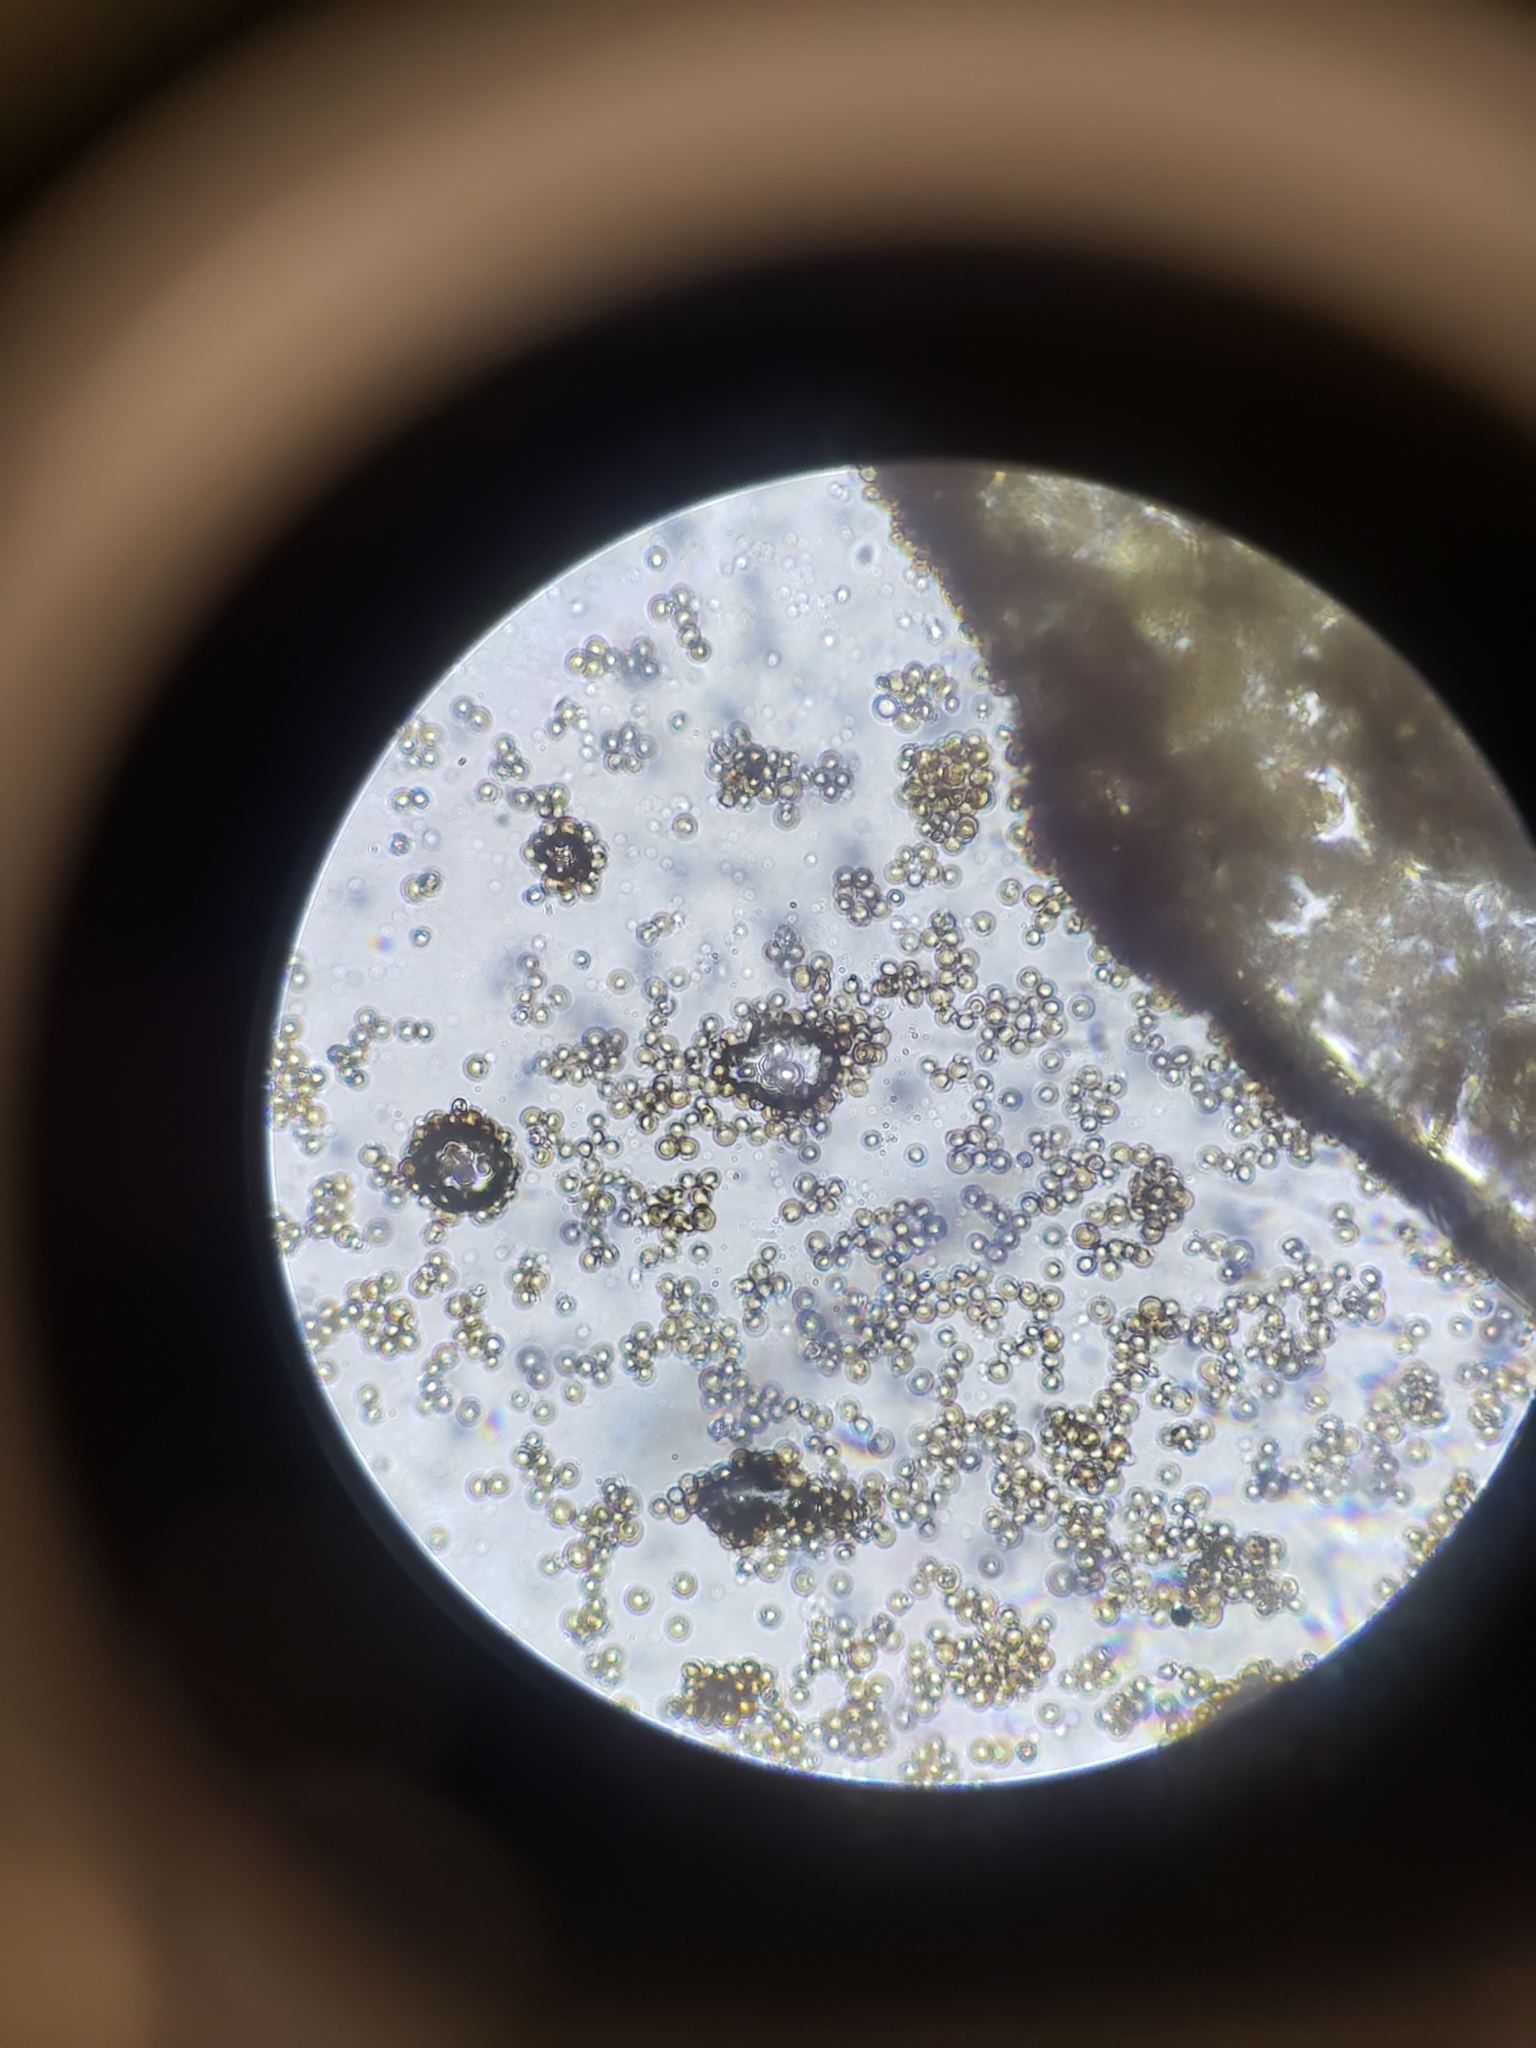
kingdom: Fungi
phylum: Basidiomycota
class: Atractiellomycetes
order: Atractiellales
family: Phleogenaceae
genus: Phleogena
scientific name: Phleogena faginea
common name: Fenugreek stalkball
